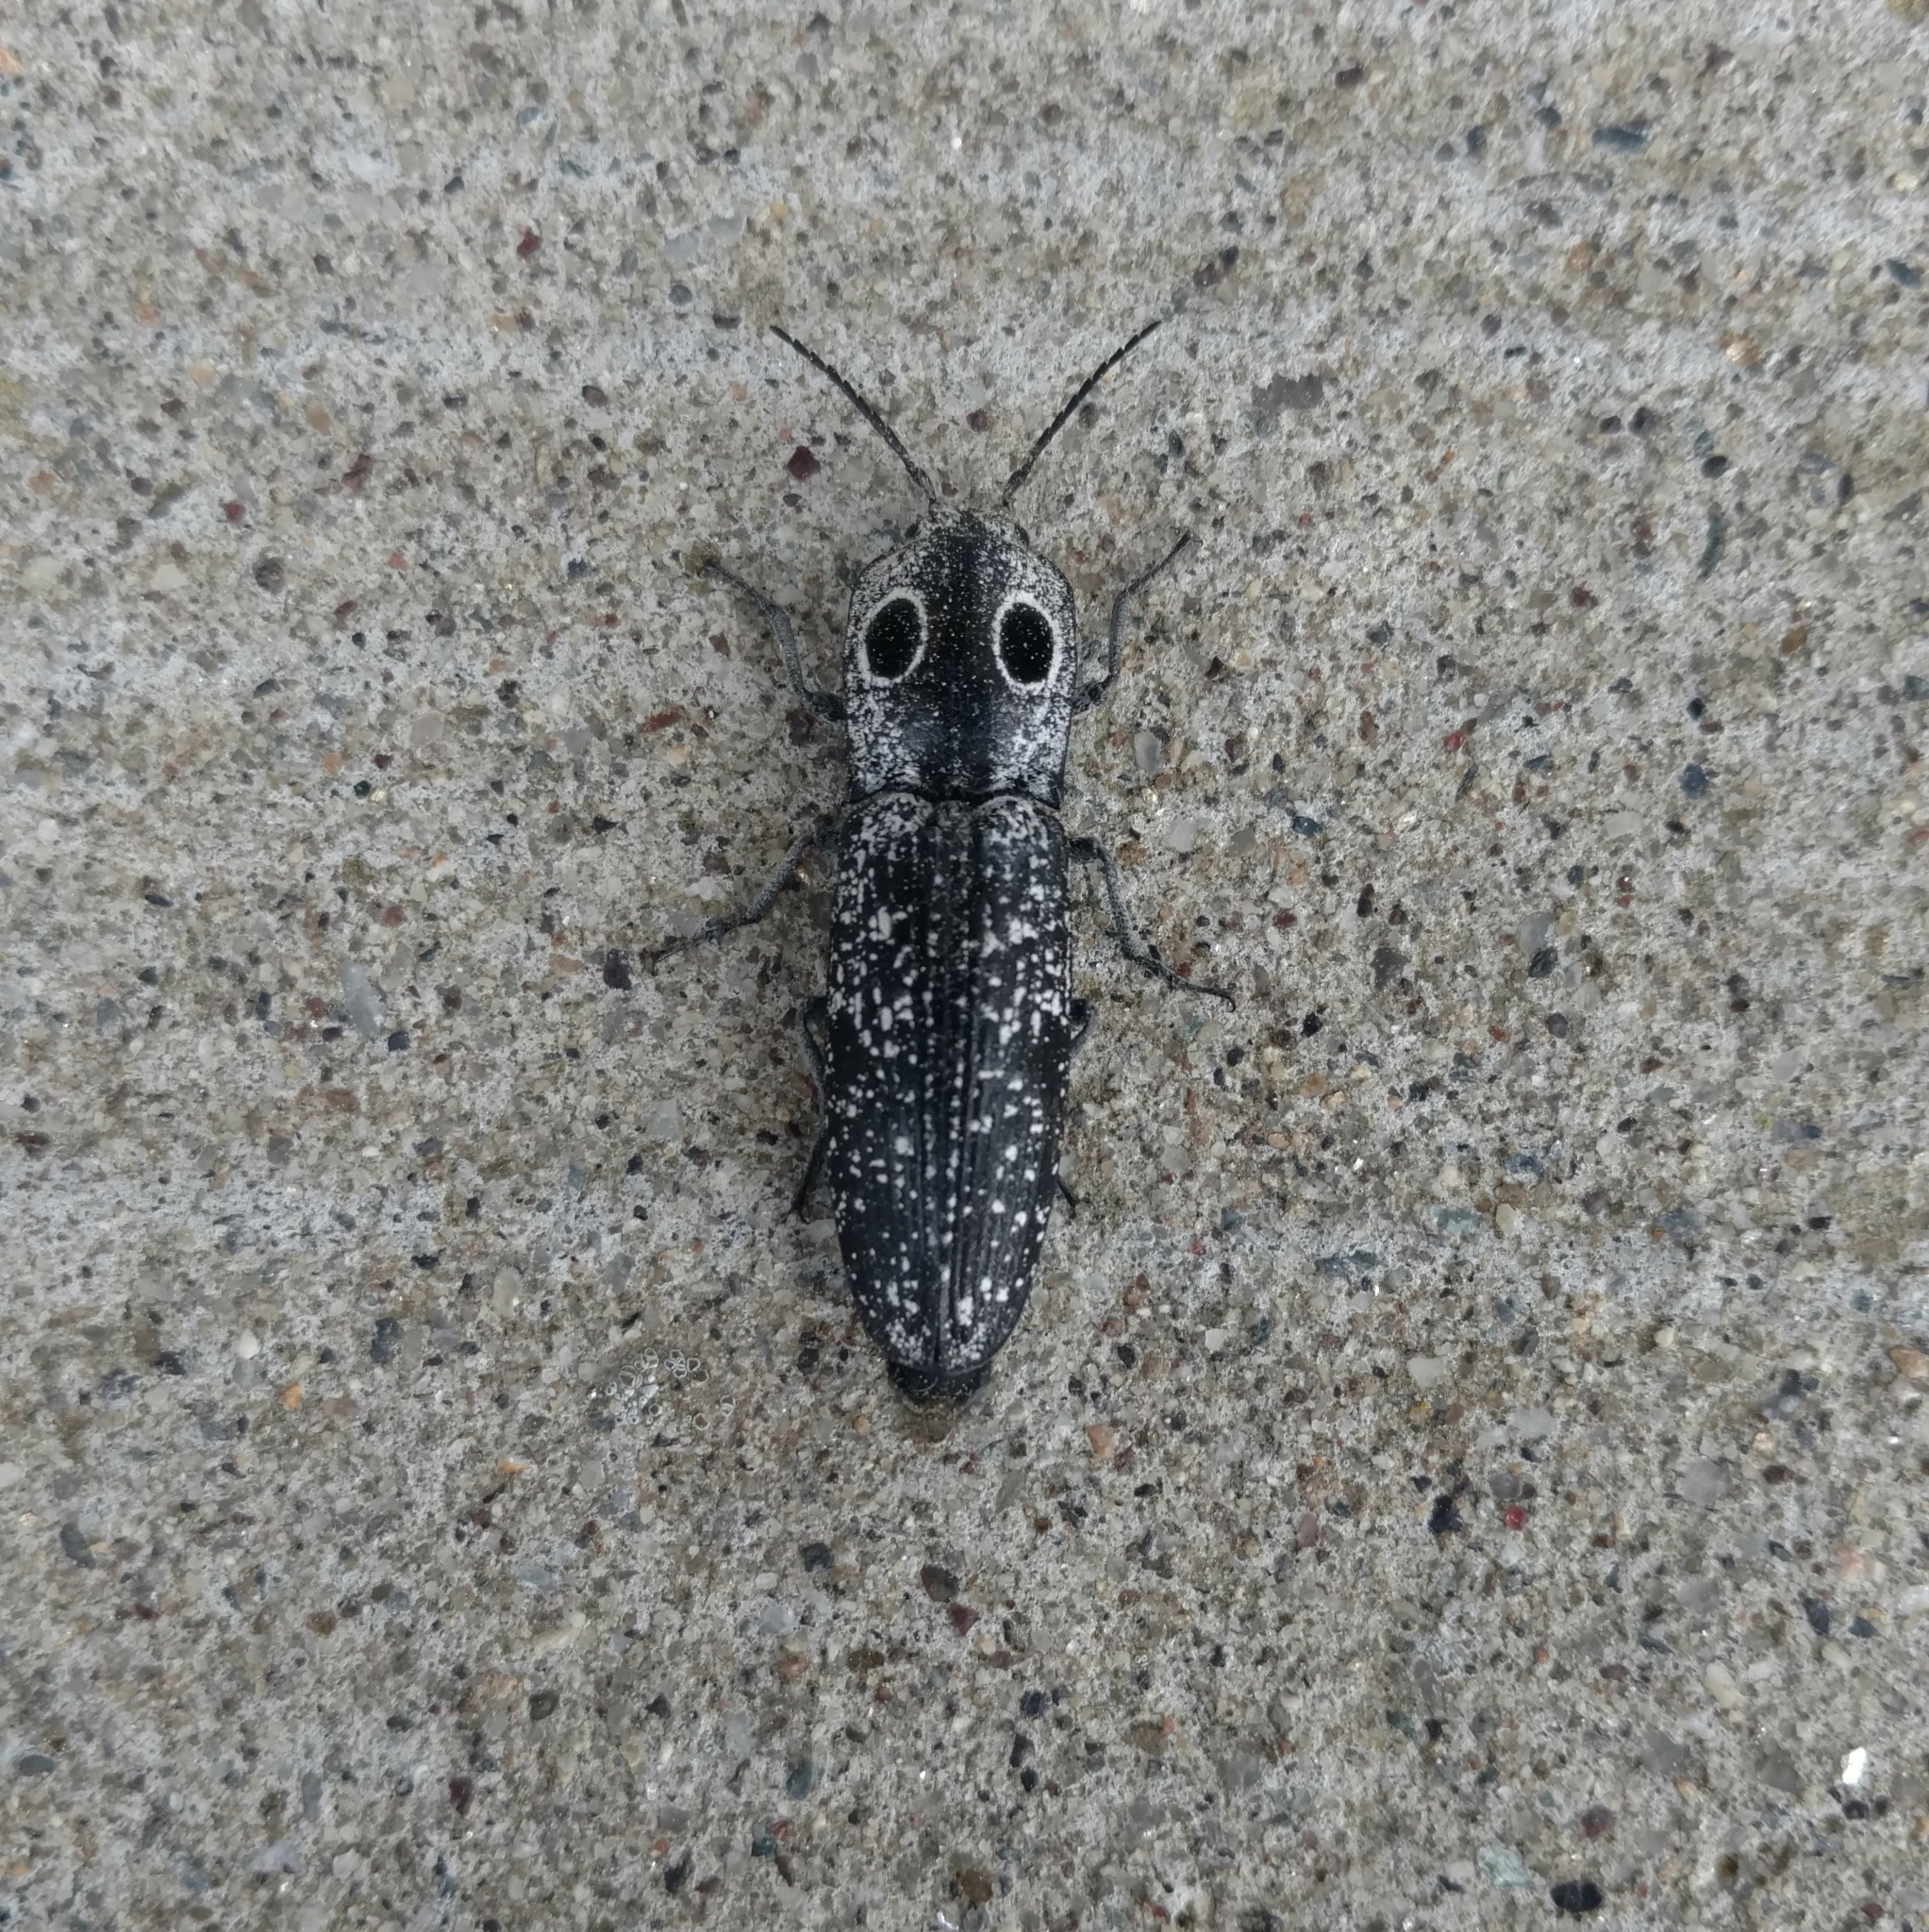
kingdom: Animalia
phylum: Arthropoda
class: Insecta
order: Coleoptera
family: Elateridae
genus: Alaus
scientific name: Alaus oculatus
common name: Eastern eyed click beetle
